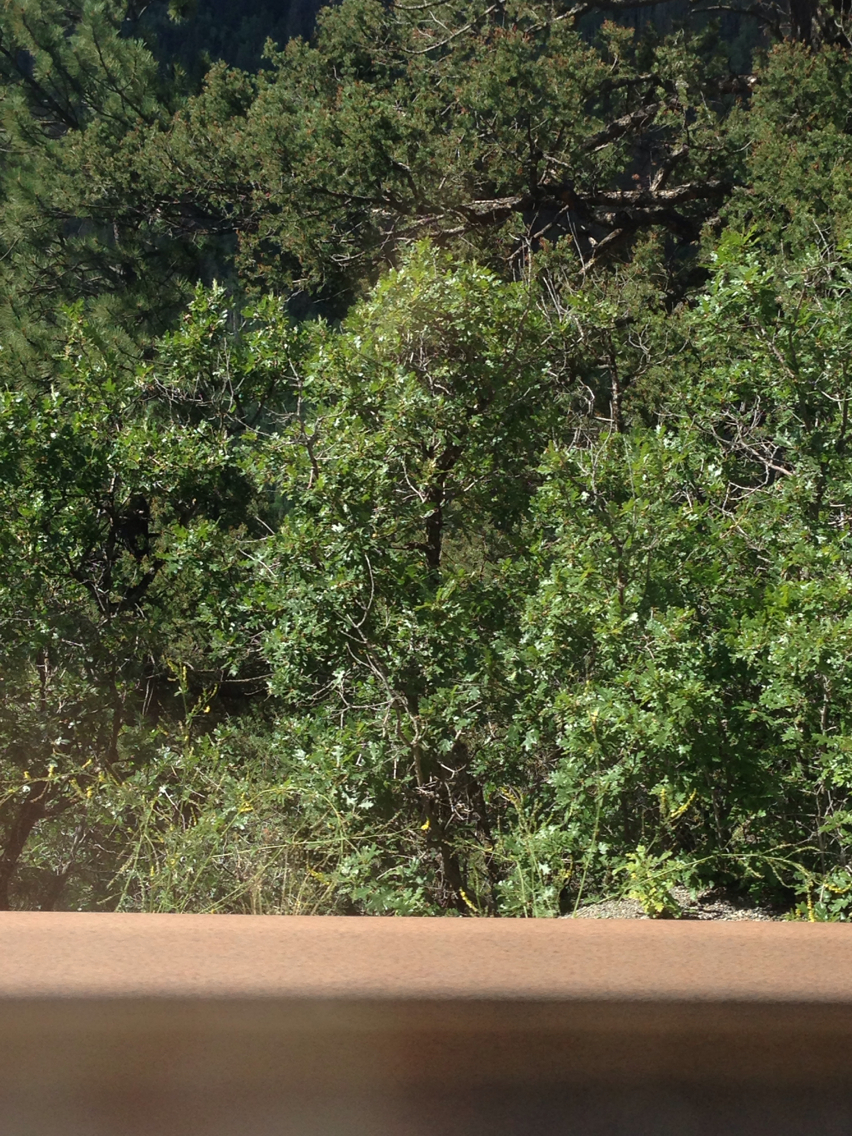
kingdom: Plantae
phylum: Tracheophyta
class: Magnoliopsida
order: Fagales
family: Fagaceae
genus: Quercus
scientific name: Quercus gambelii
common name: Gambel oak
